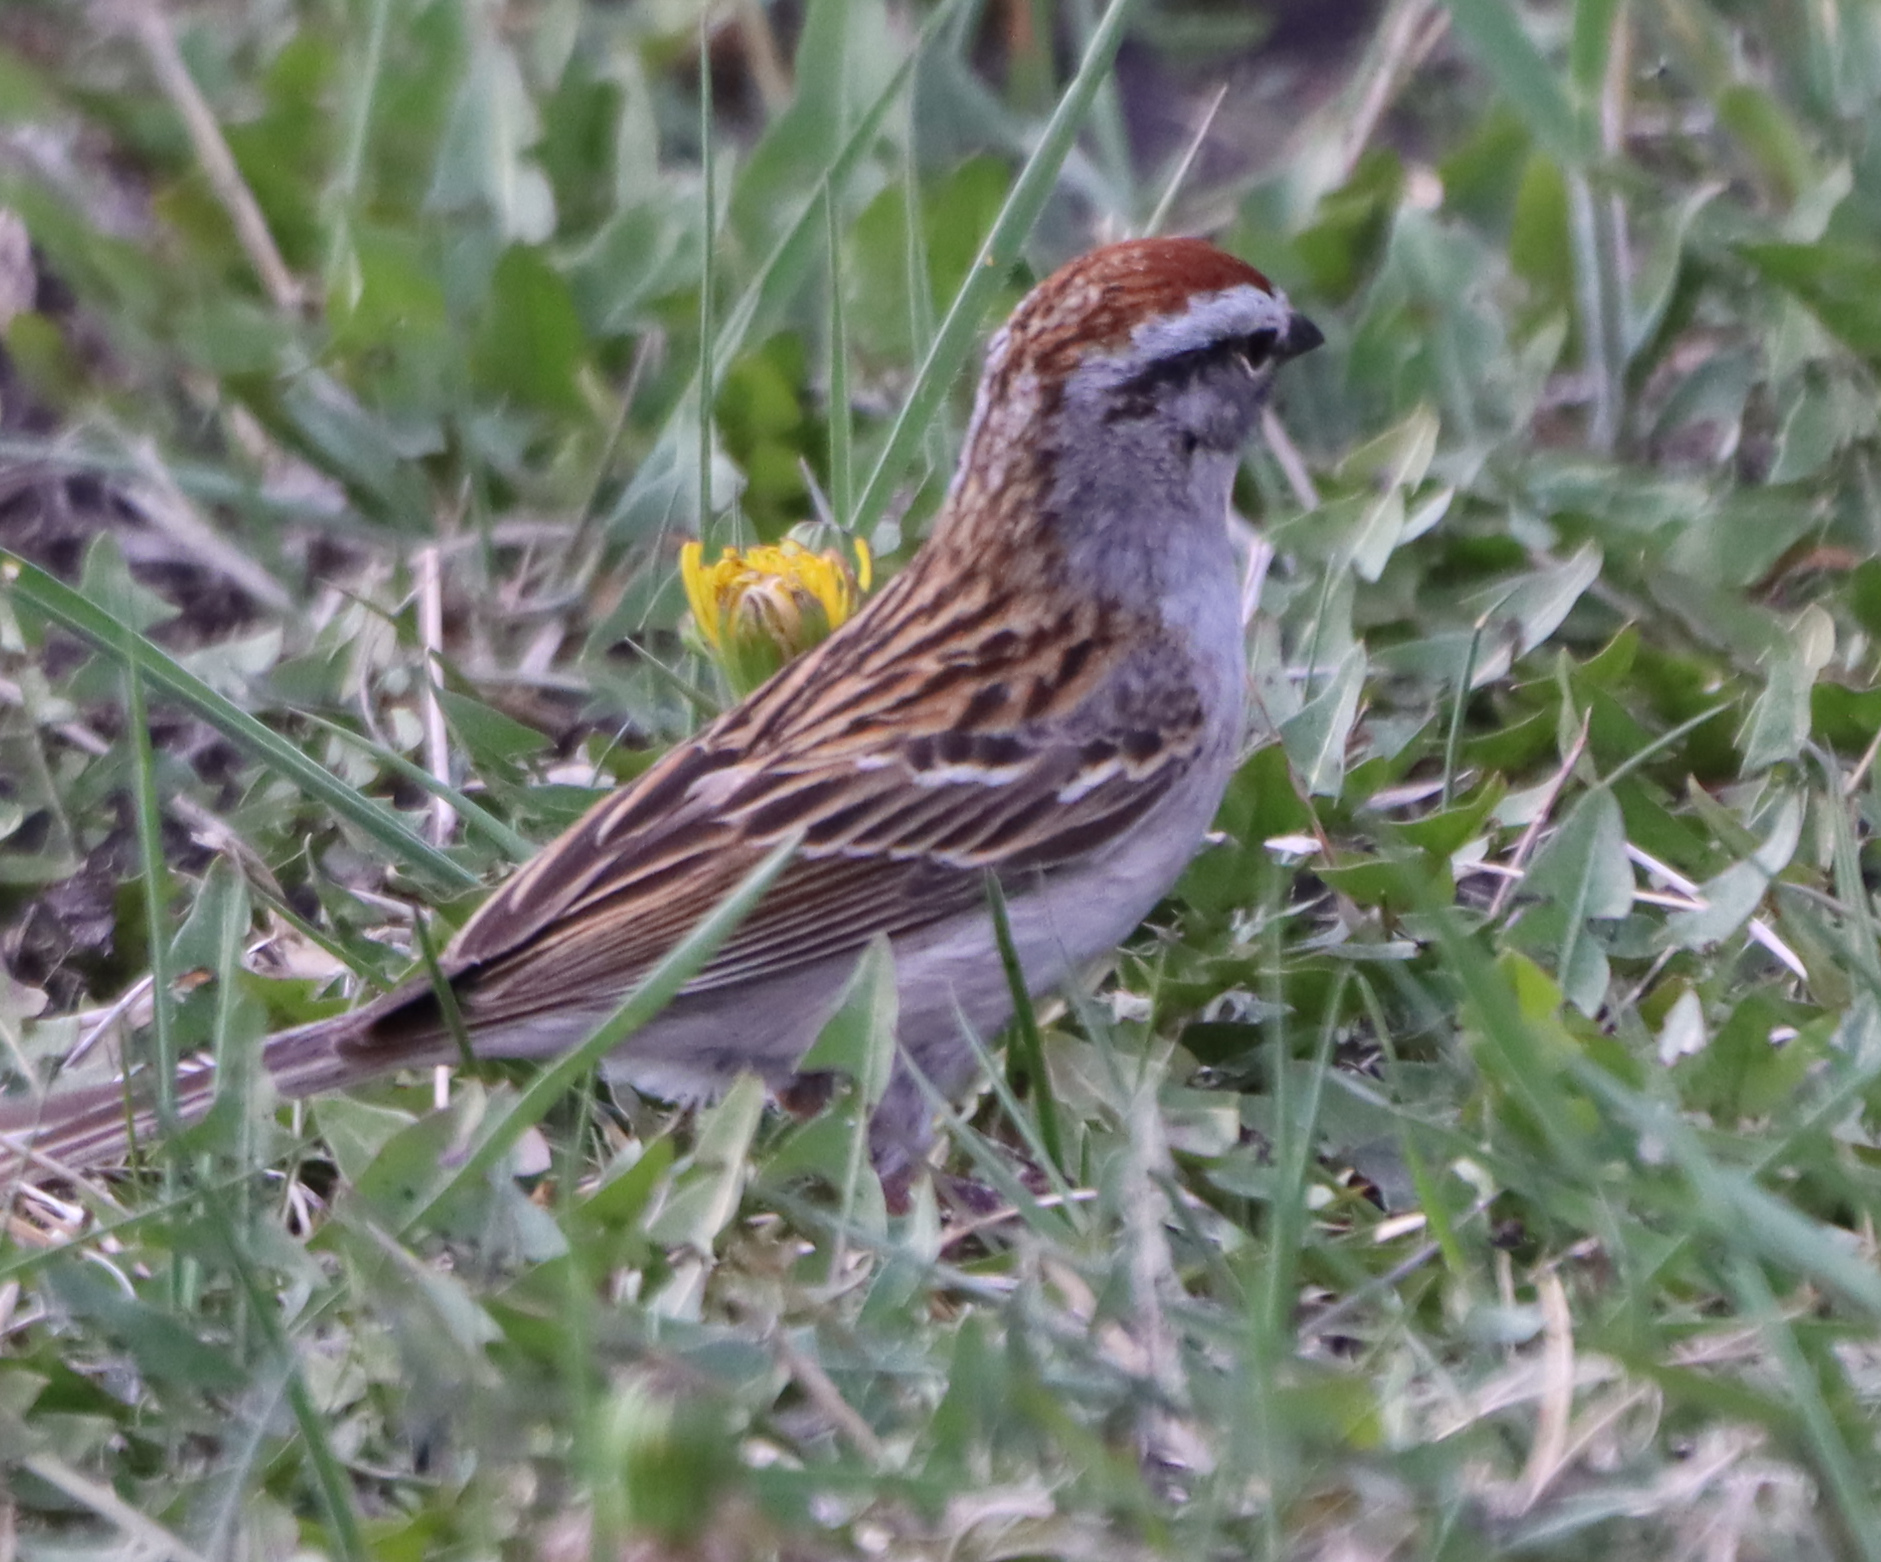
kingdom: Animalia
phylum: Chordata
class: Aves
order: Passeriformes
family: Passerellidae
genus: Spizella
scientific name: Spizella passerina
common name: Chipping sparrow
